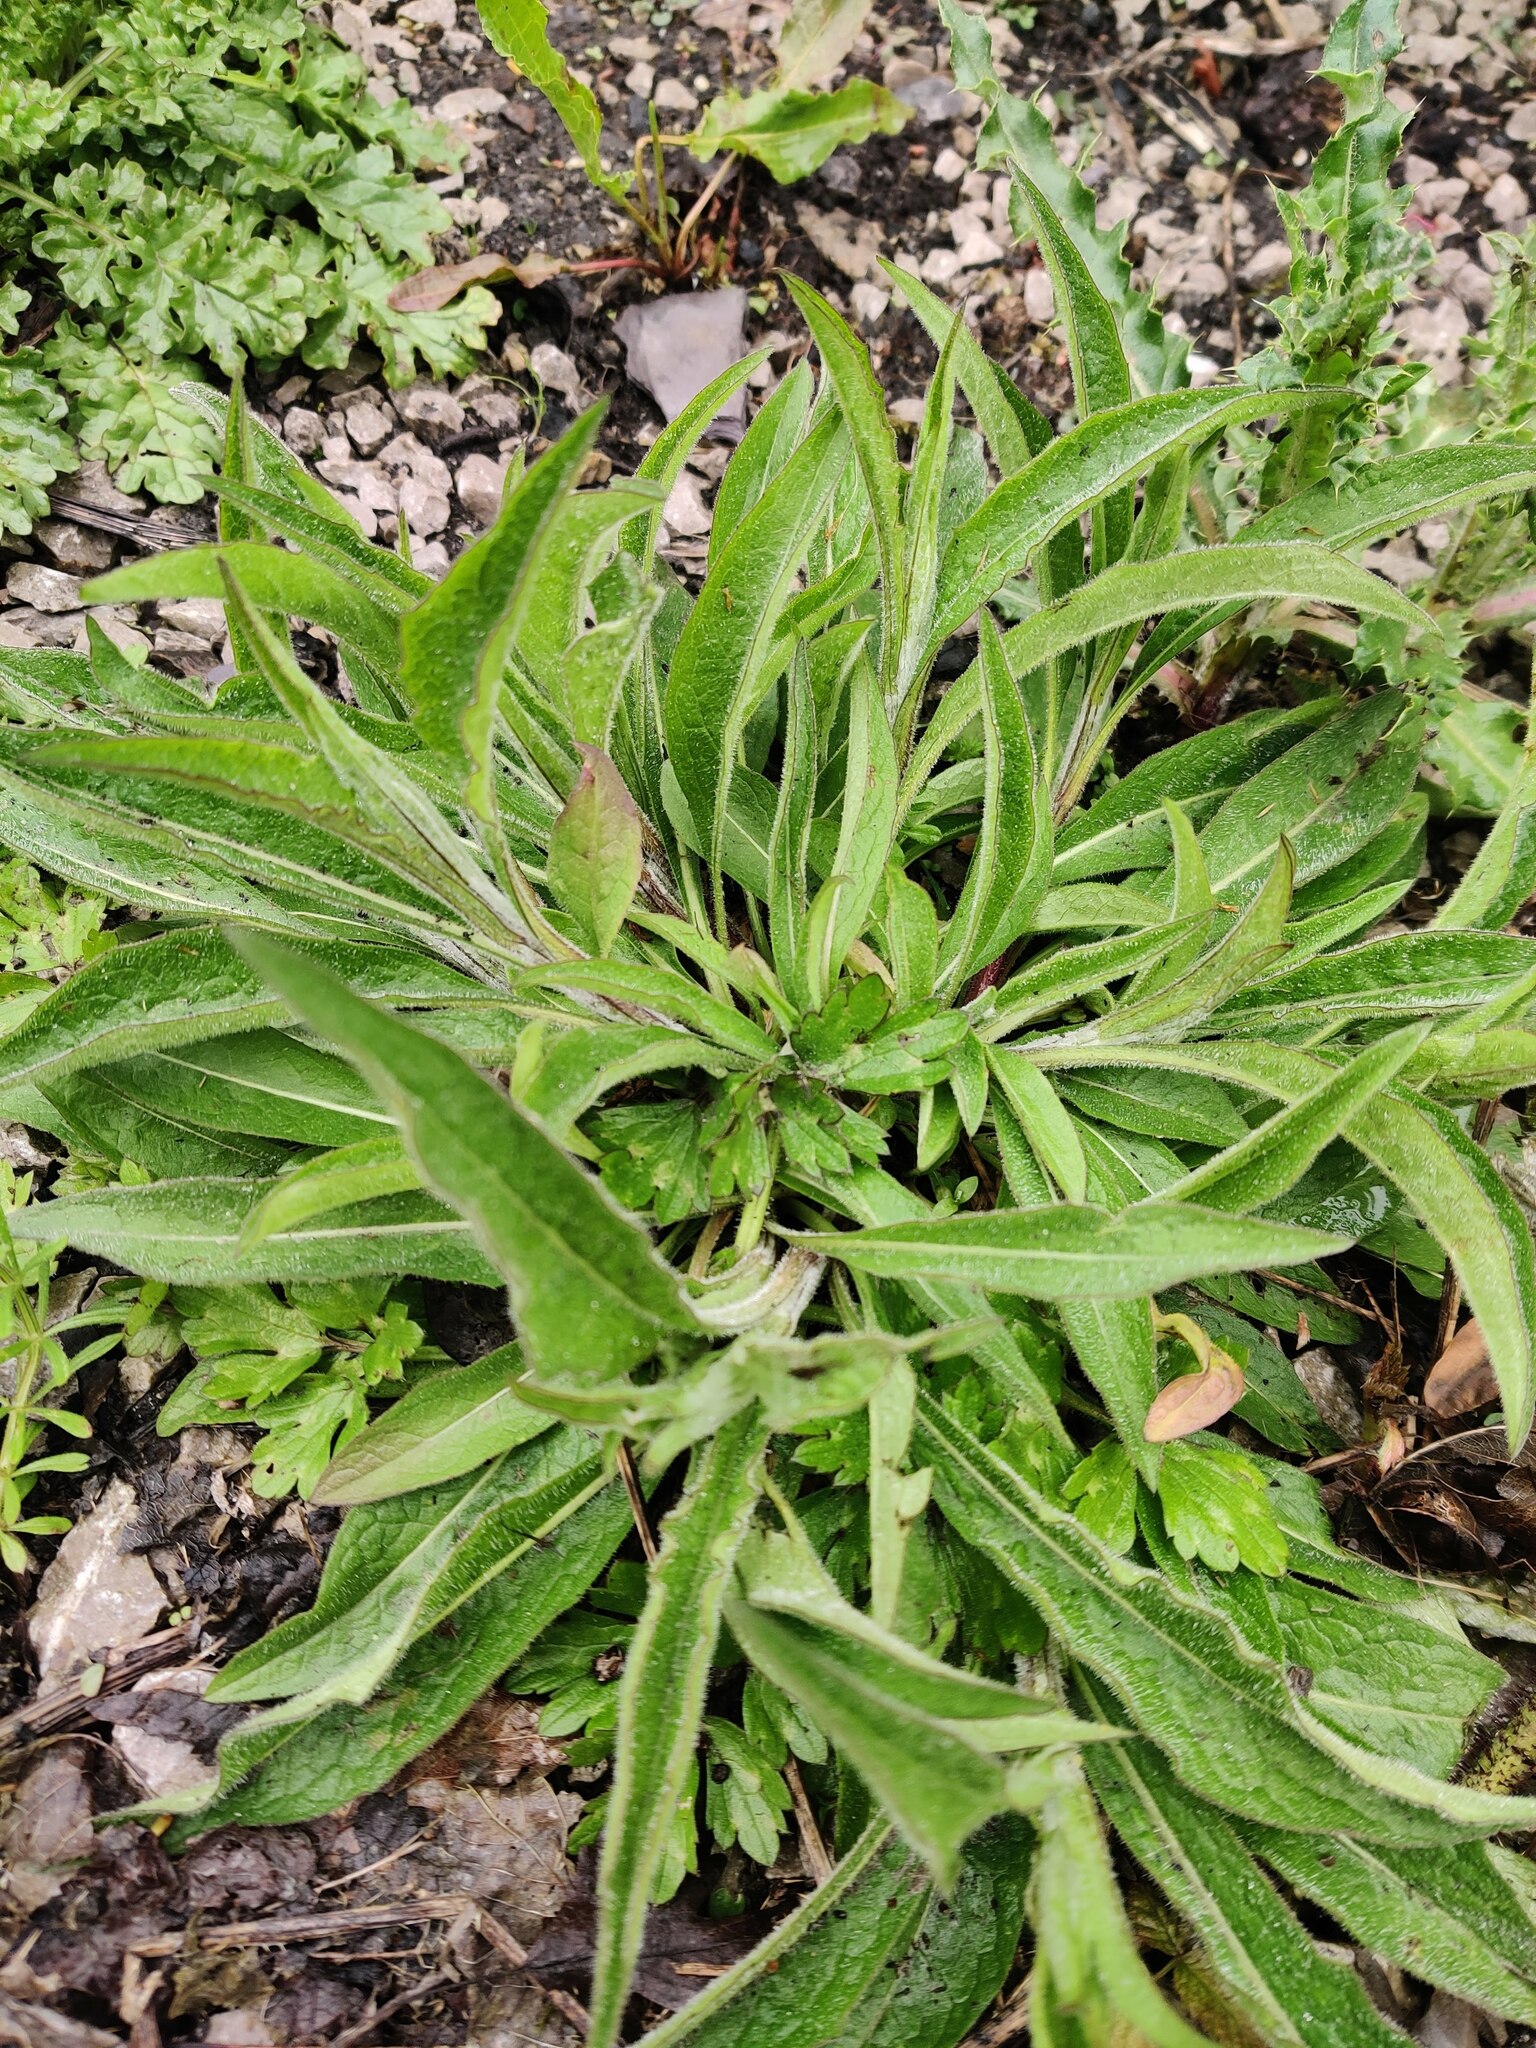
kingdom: Plantae
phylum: Tracheophyta
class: Magnoliopsida
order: Asterales
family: Asteraceae
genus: Centaurea
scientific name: Centaurea nigra
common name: Lesser knapweed
